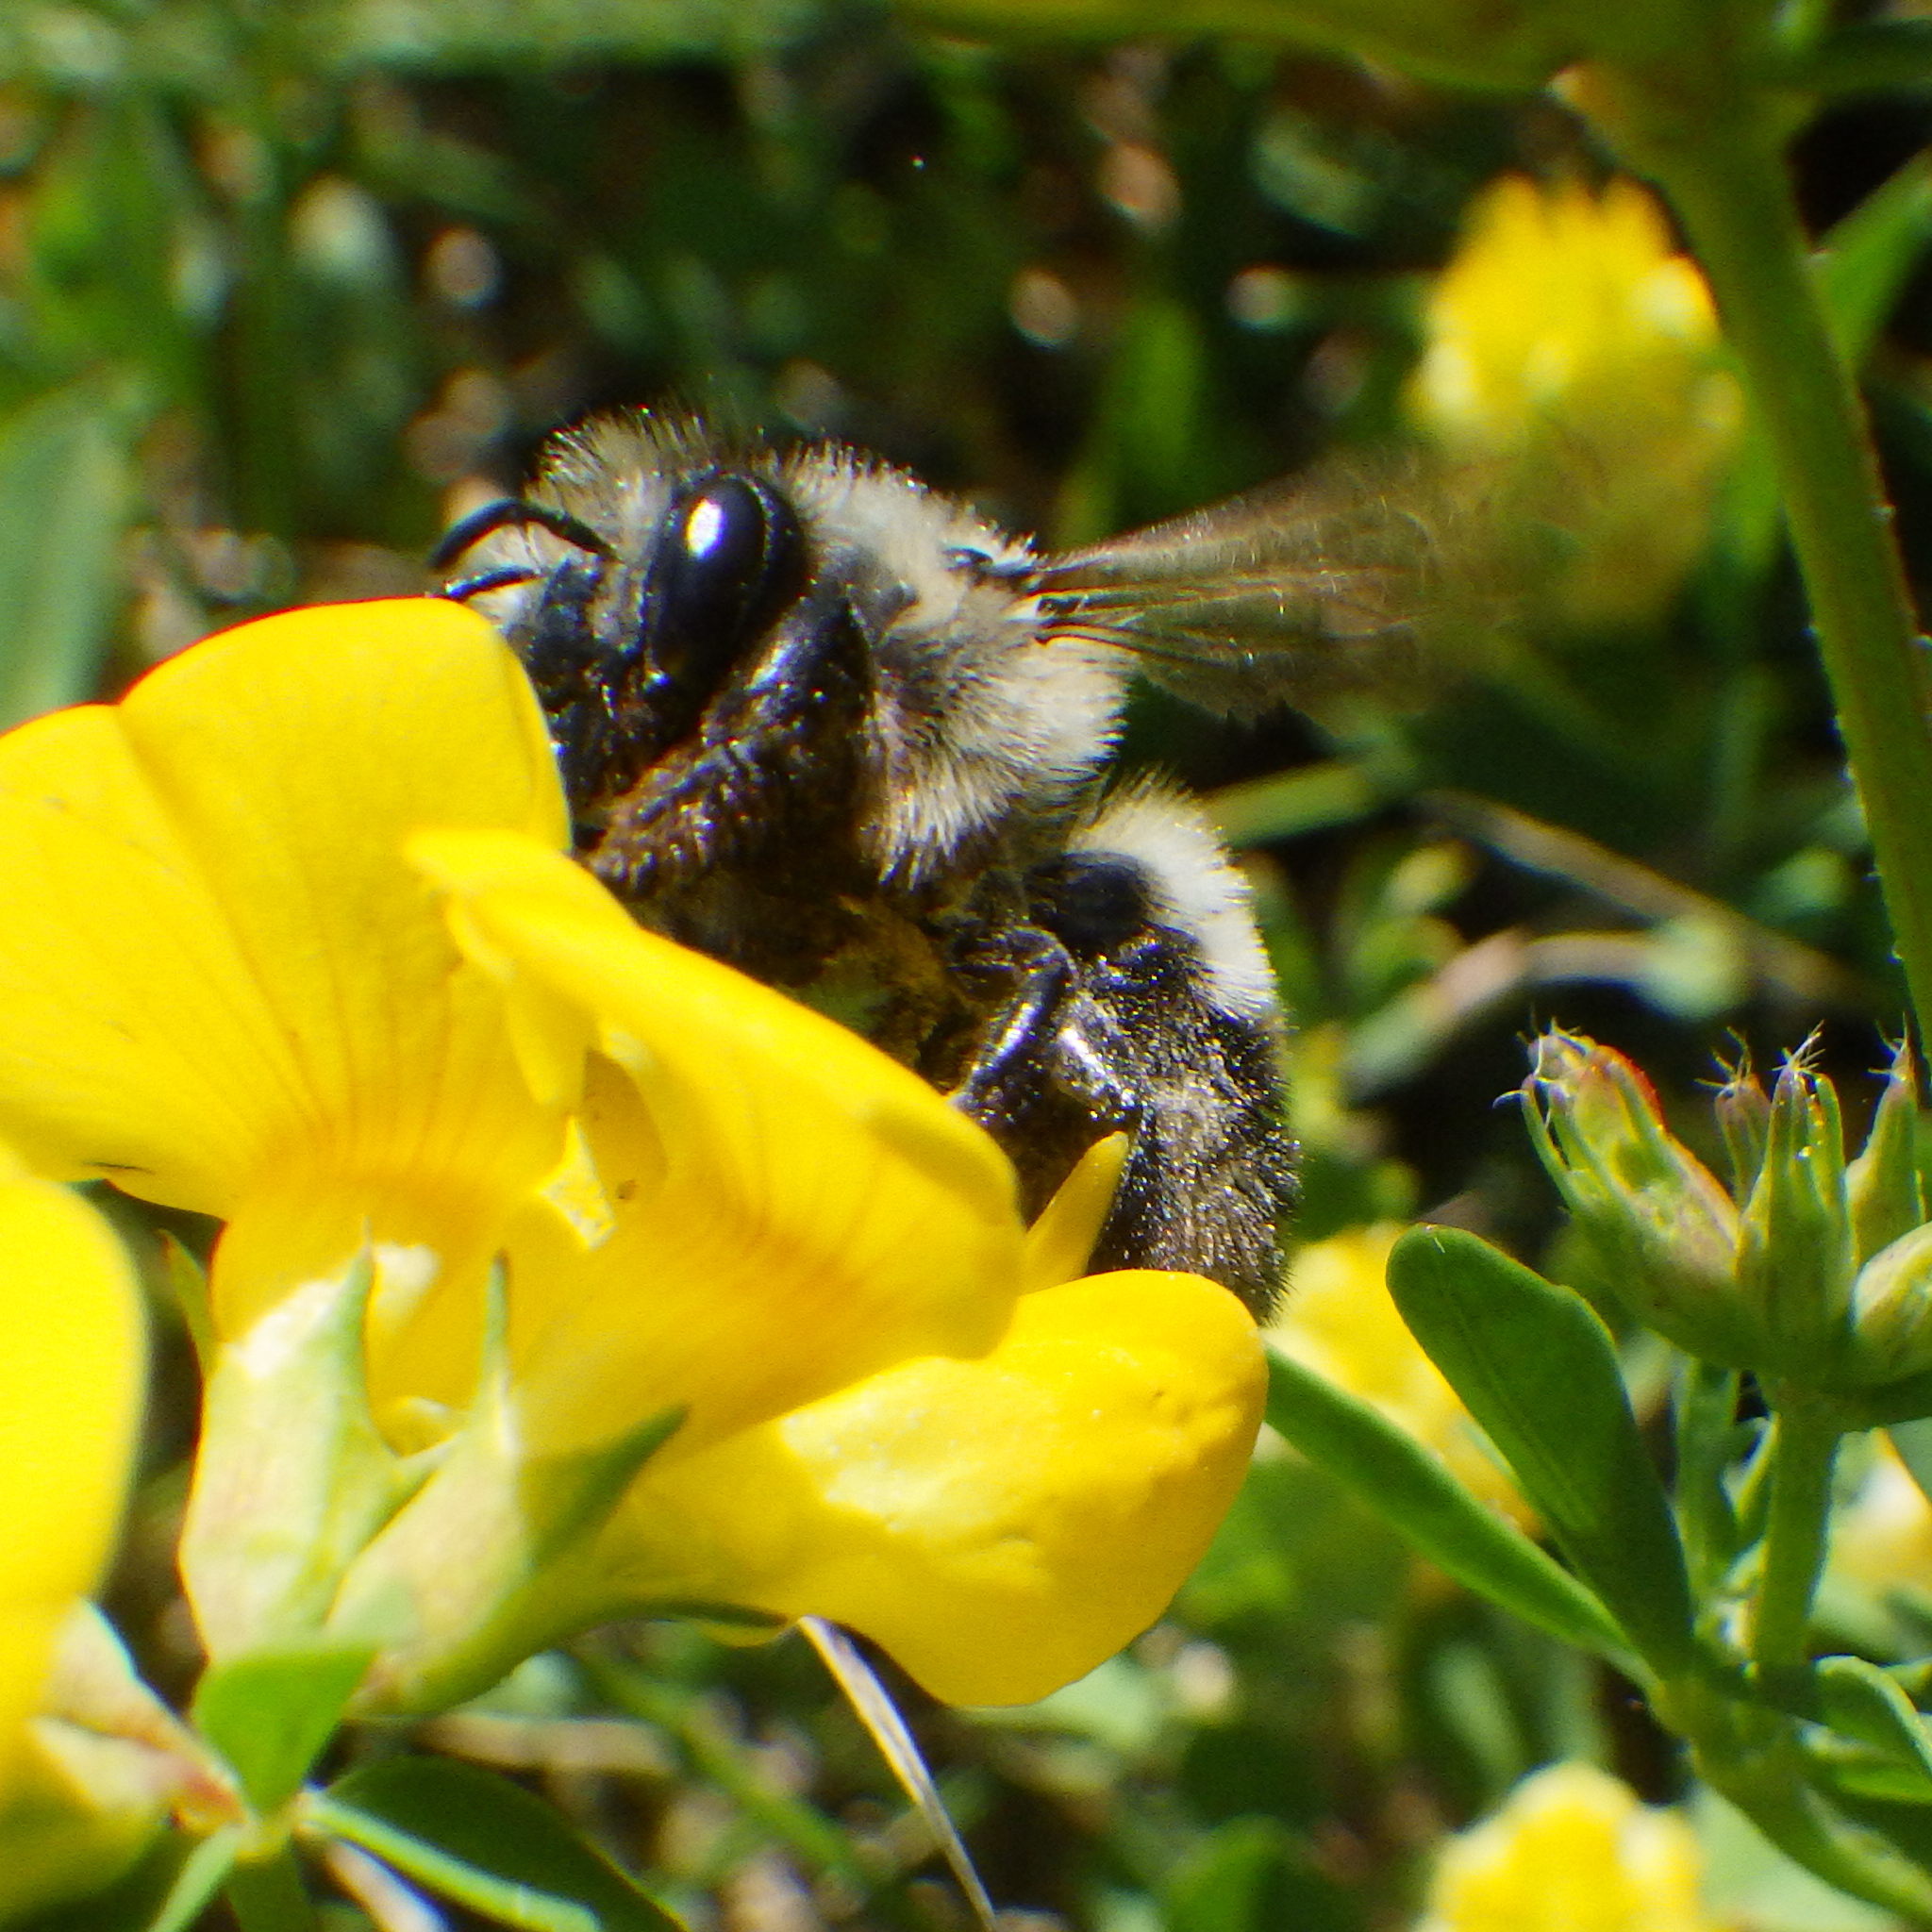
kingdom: Animalia
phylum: Arthropoda
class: Insecta
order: Hymenoptera
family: Megachilidae
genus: Megachile
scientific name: Megachile melanophaea
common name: Black-and-gray leafcutter bee
